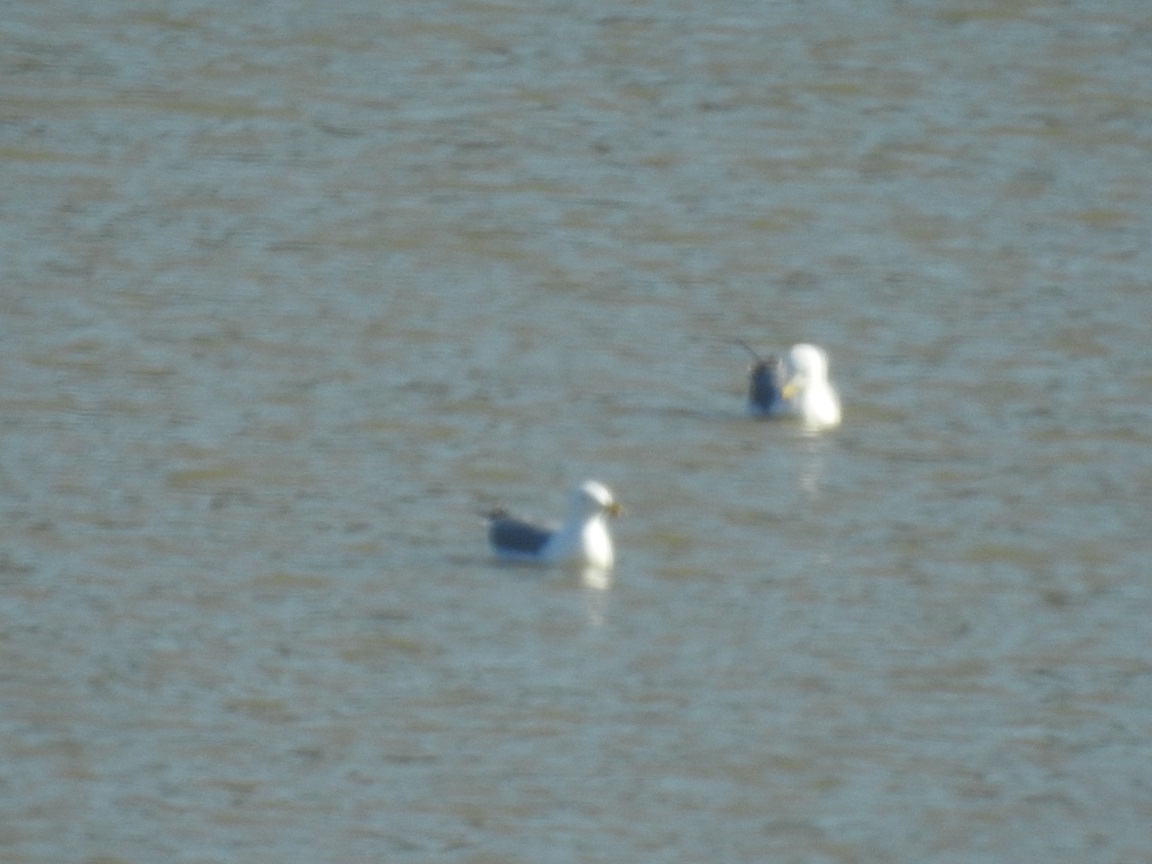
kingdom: Animalia
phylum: Chordata
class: Aves
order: Charadriiformes
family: Laridae
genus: Larus
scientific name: Larus michahellis
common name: Yellow-legged gull
